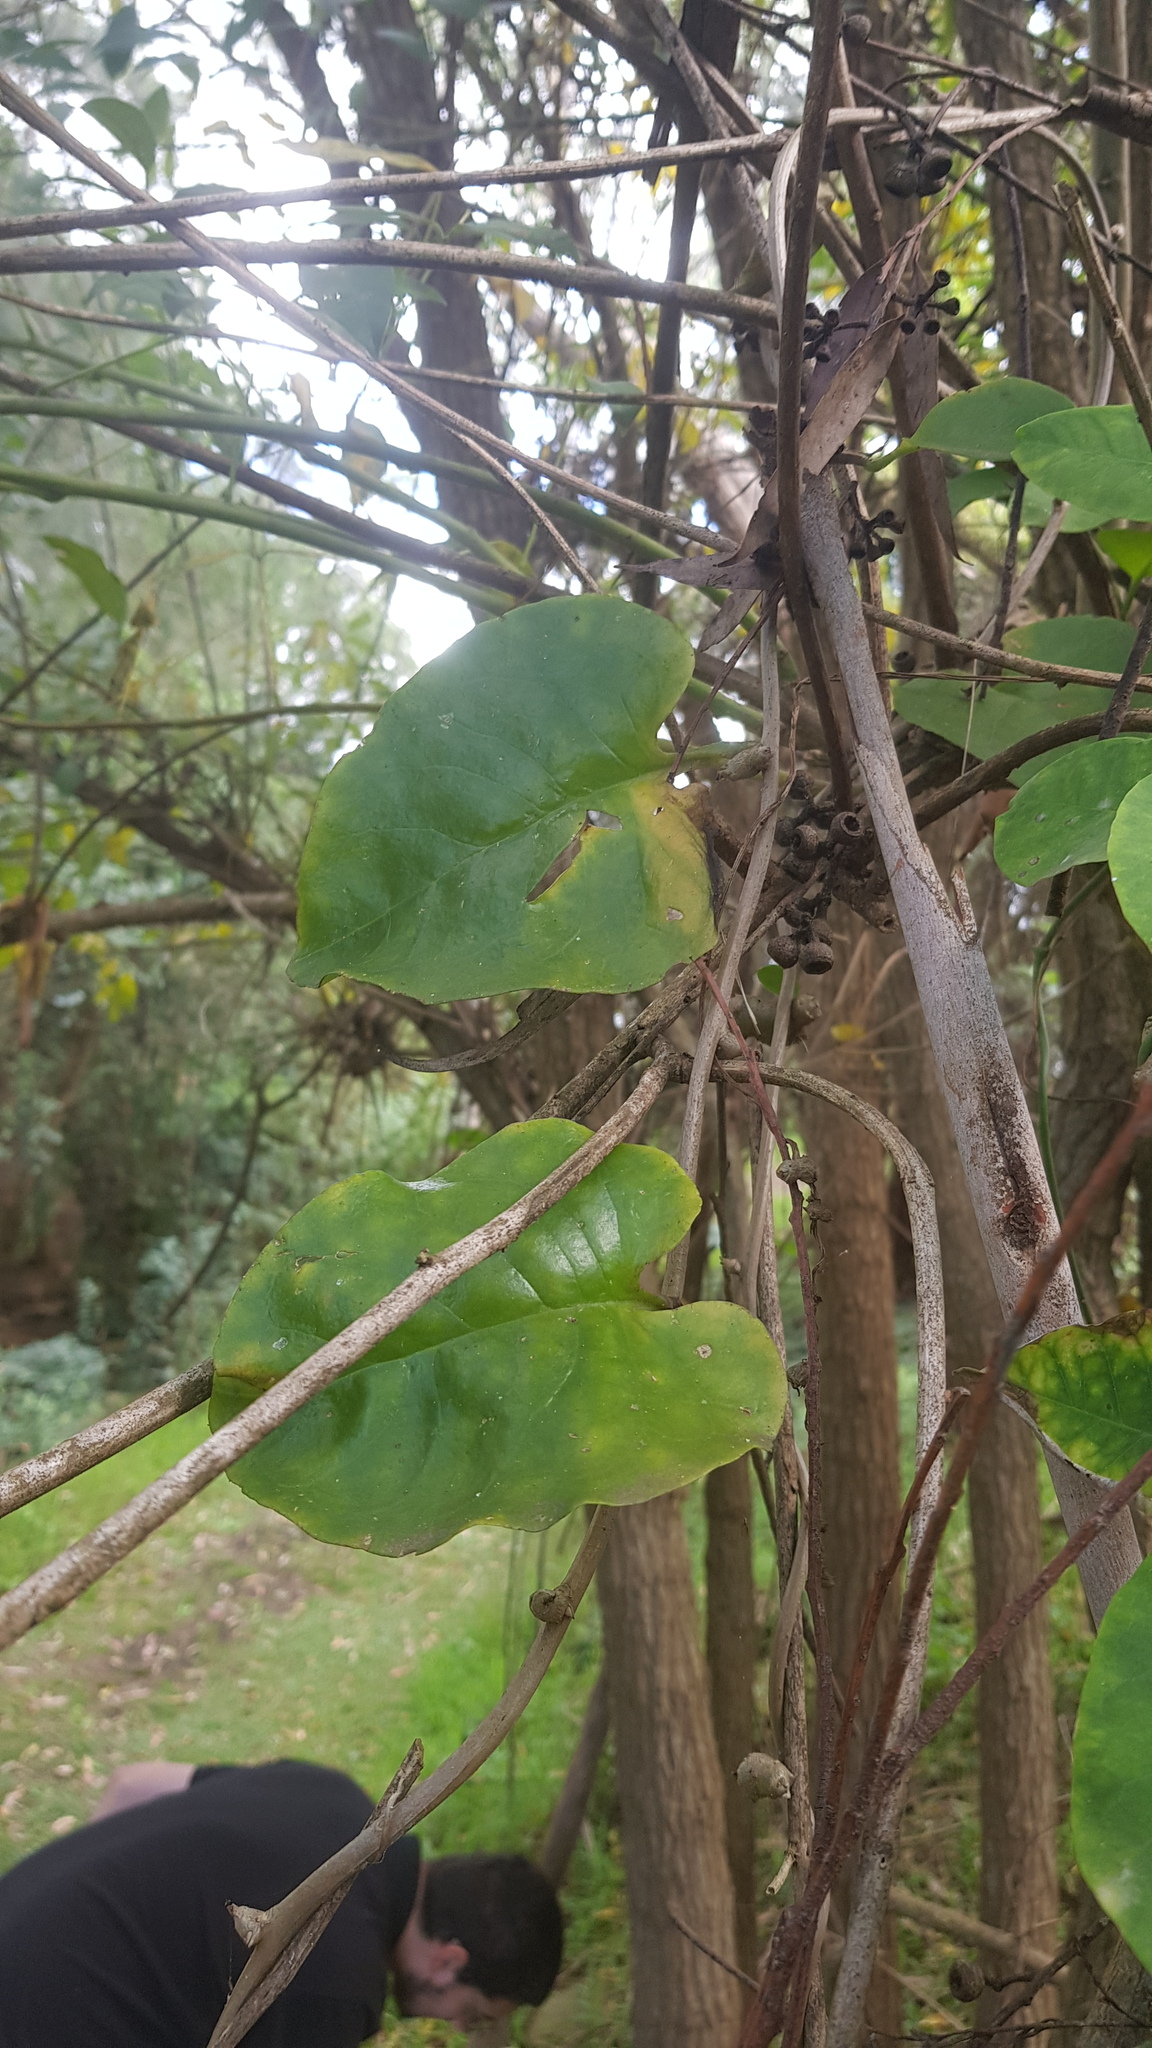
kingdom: Plantae
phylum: Tracheophyta
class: Magnoliopsida
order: Caryophyllales
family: Basellaceae
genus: Anredera
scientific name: Anredera cordifolia
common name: Heartleaf madeiravine
